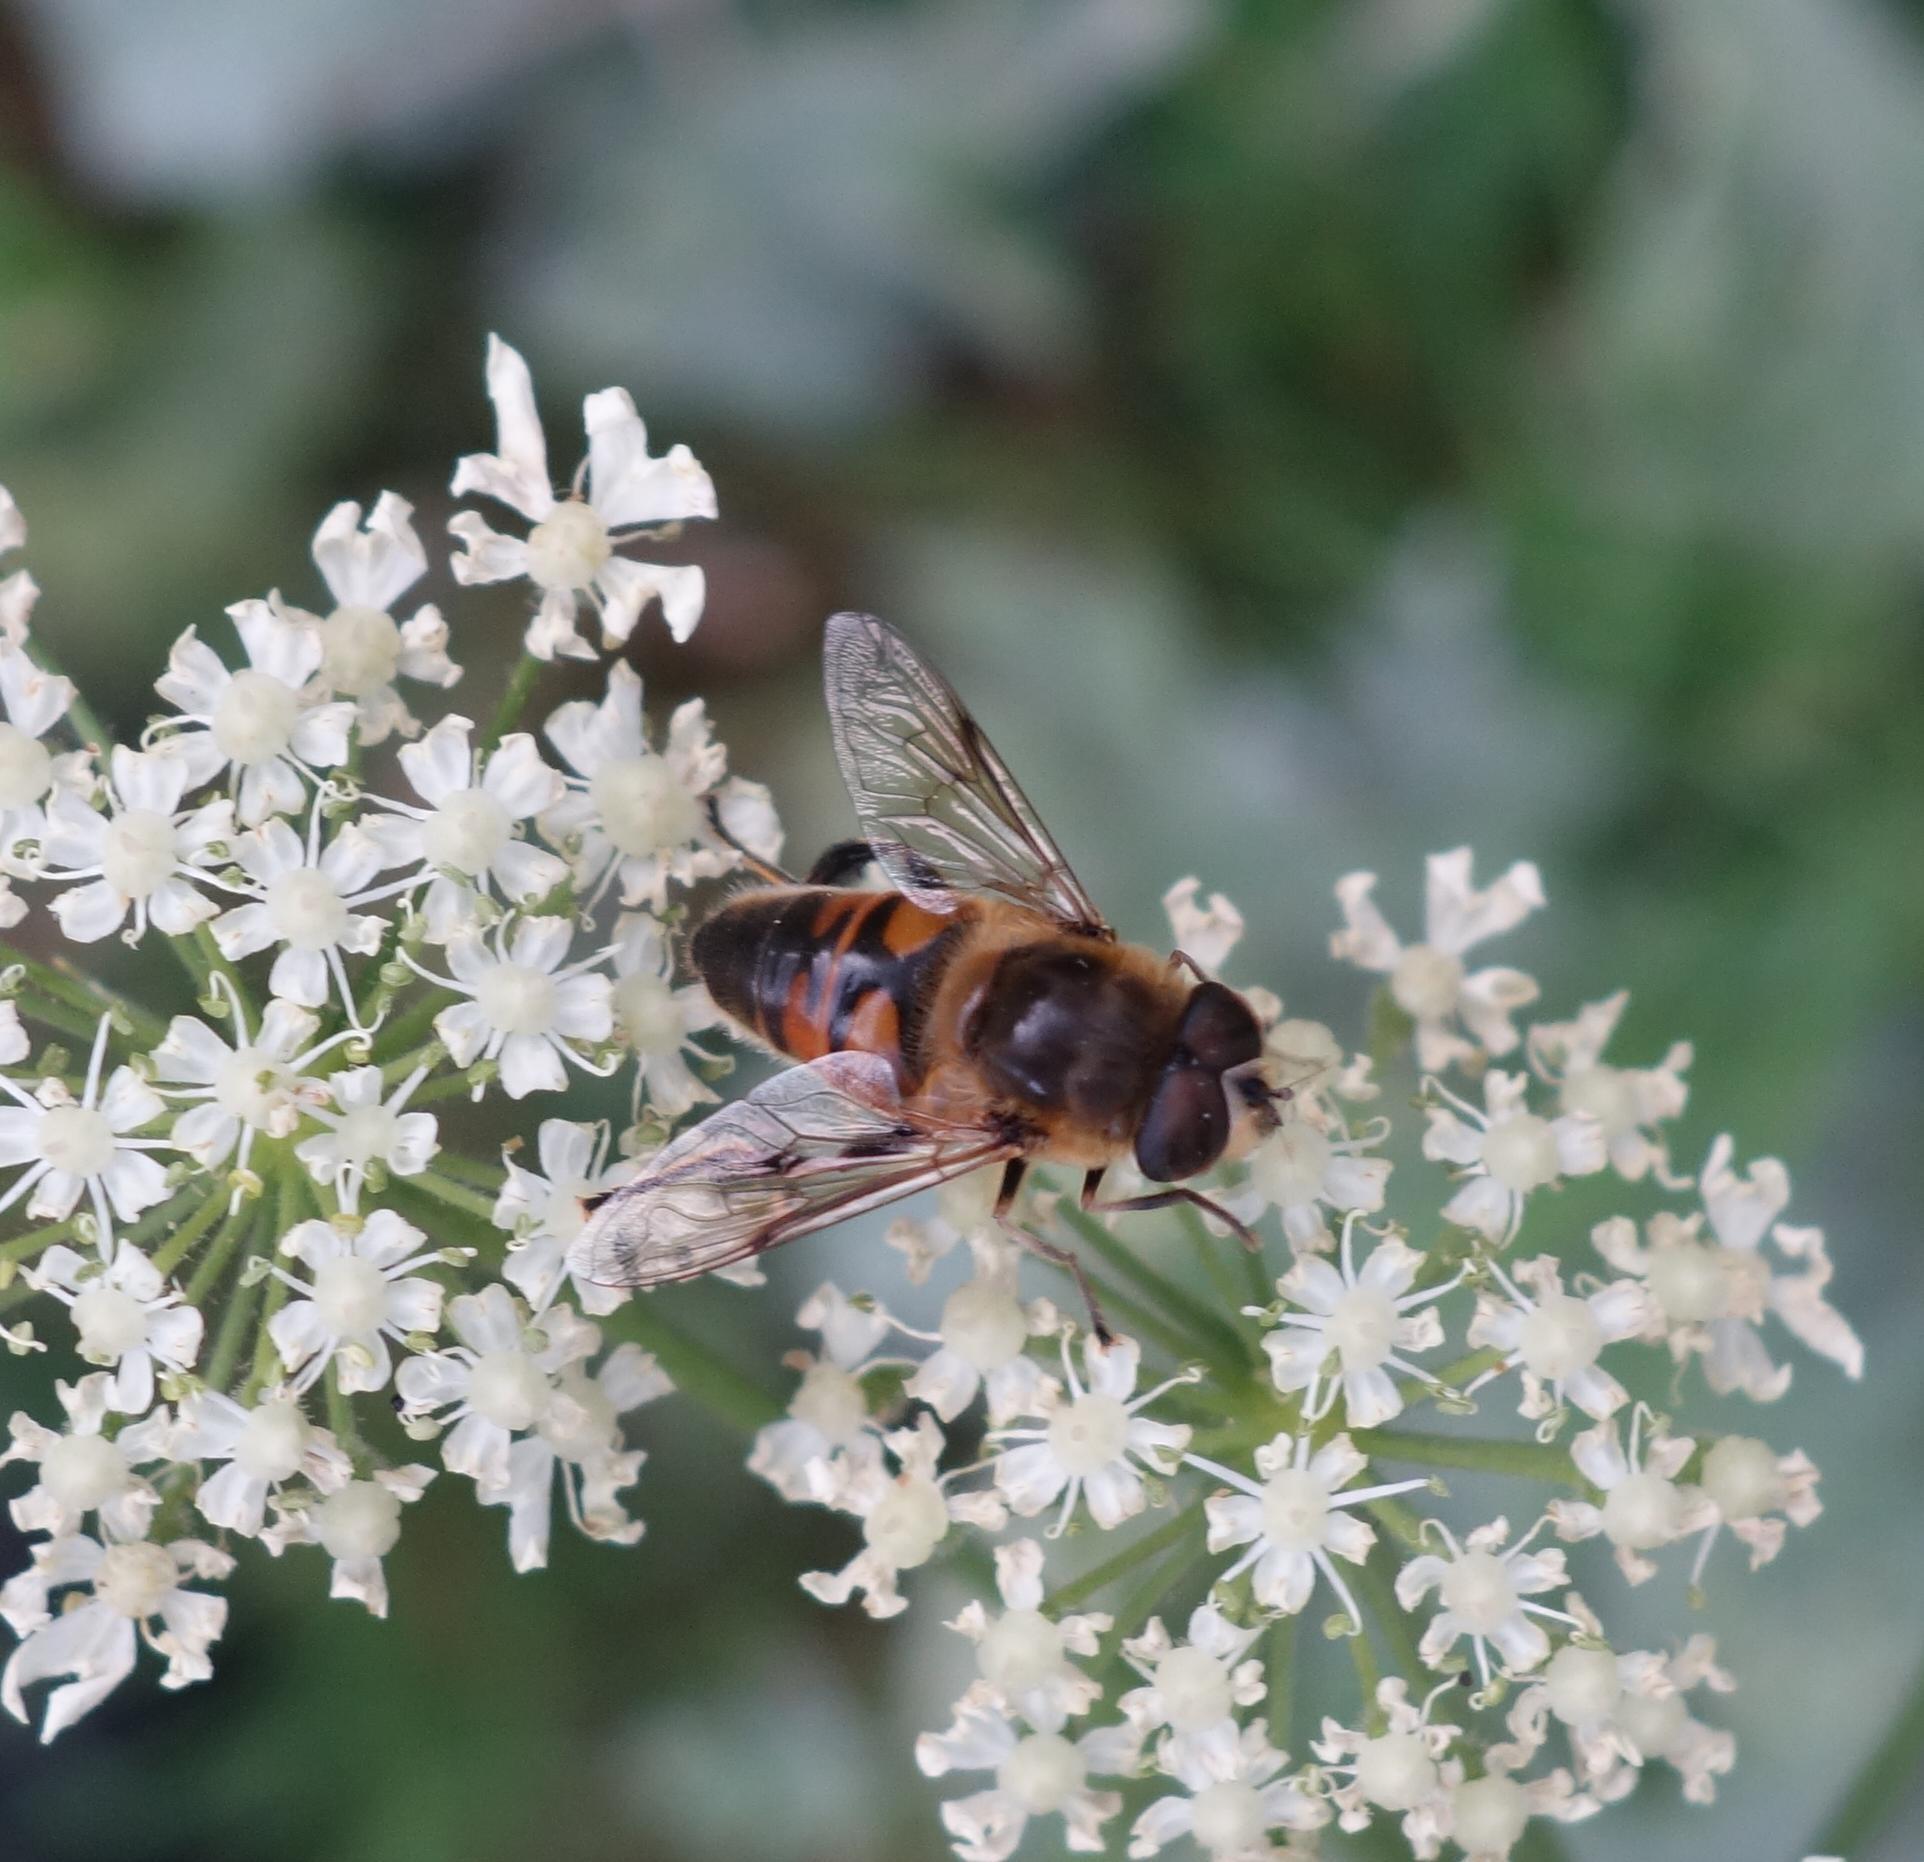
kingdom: Animalia
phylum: Arthropoda
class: Insecta
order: Diptera
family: Syrphidae
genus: Eristalis
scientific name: Eristalis tenax
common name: Drone fly
